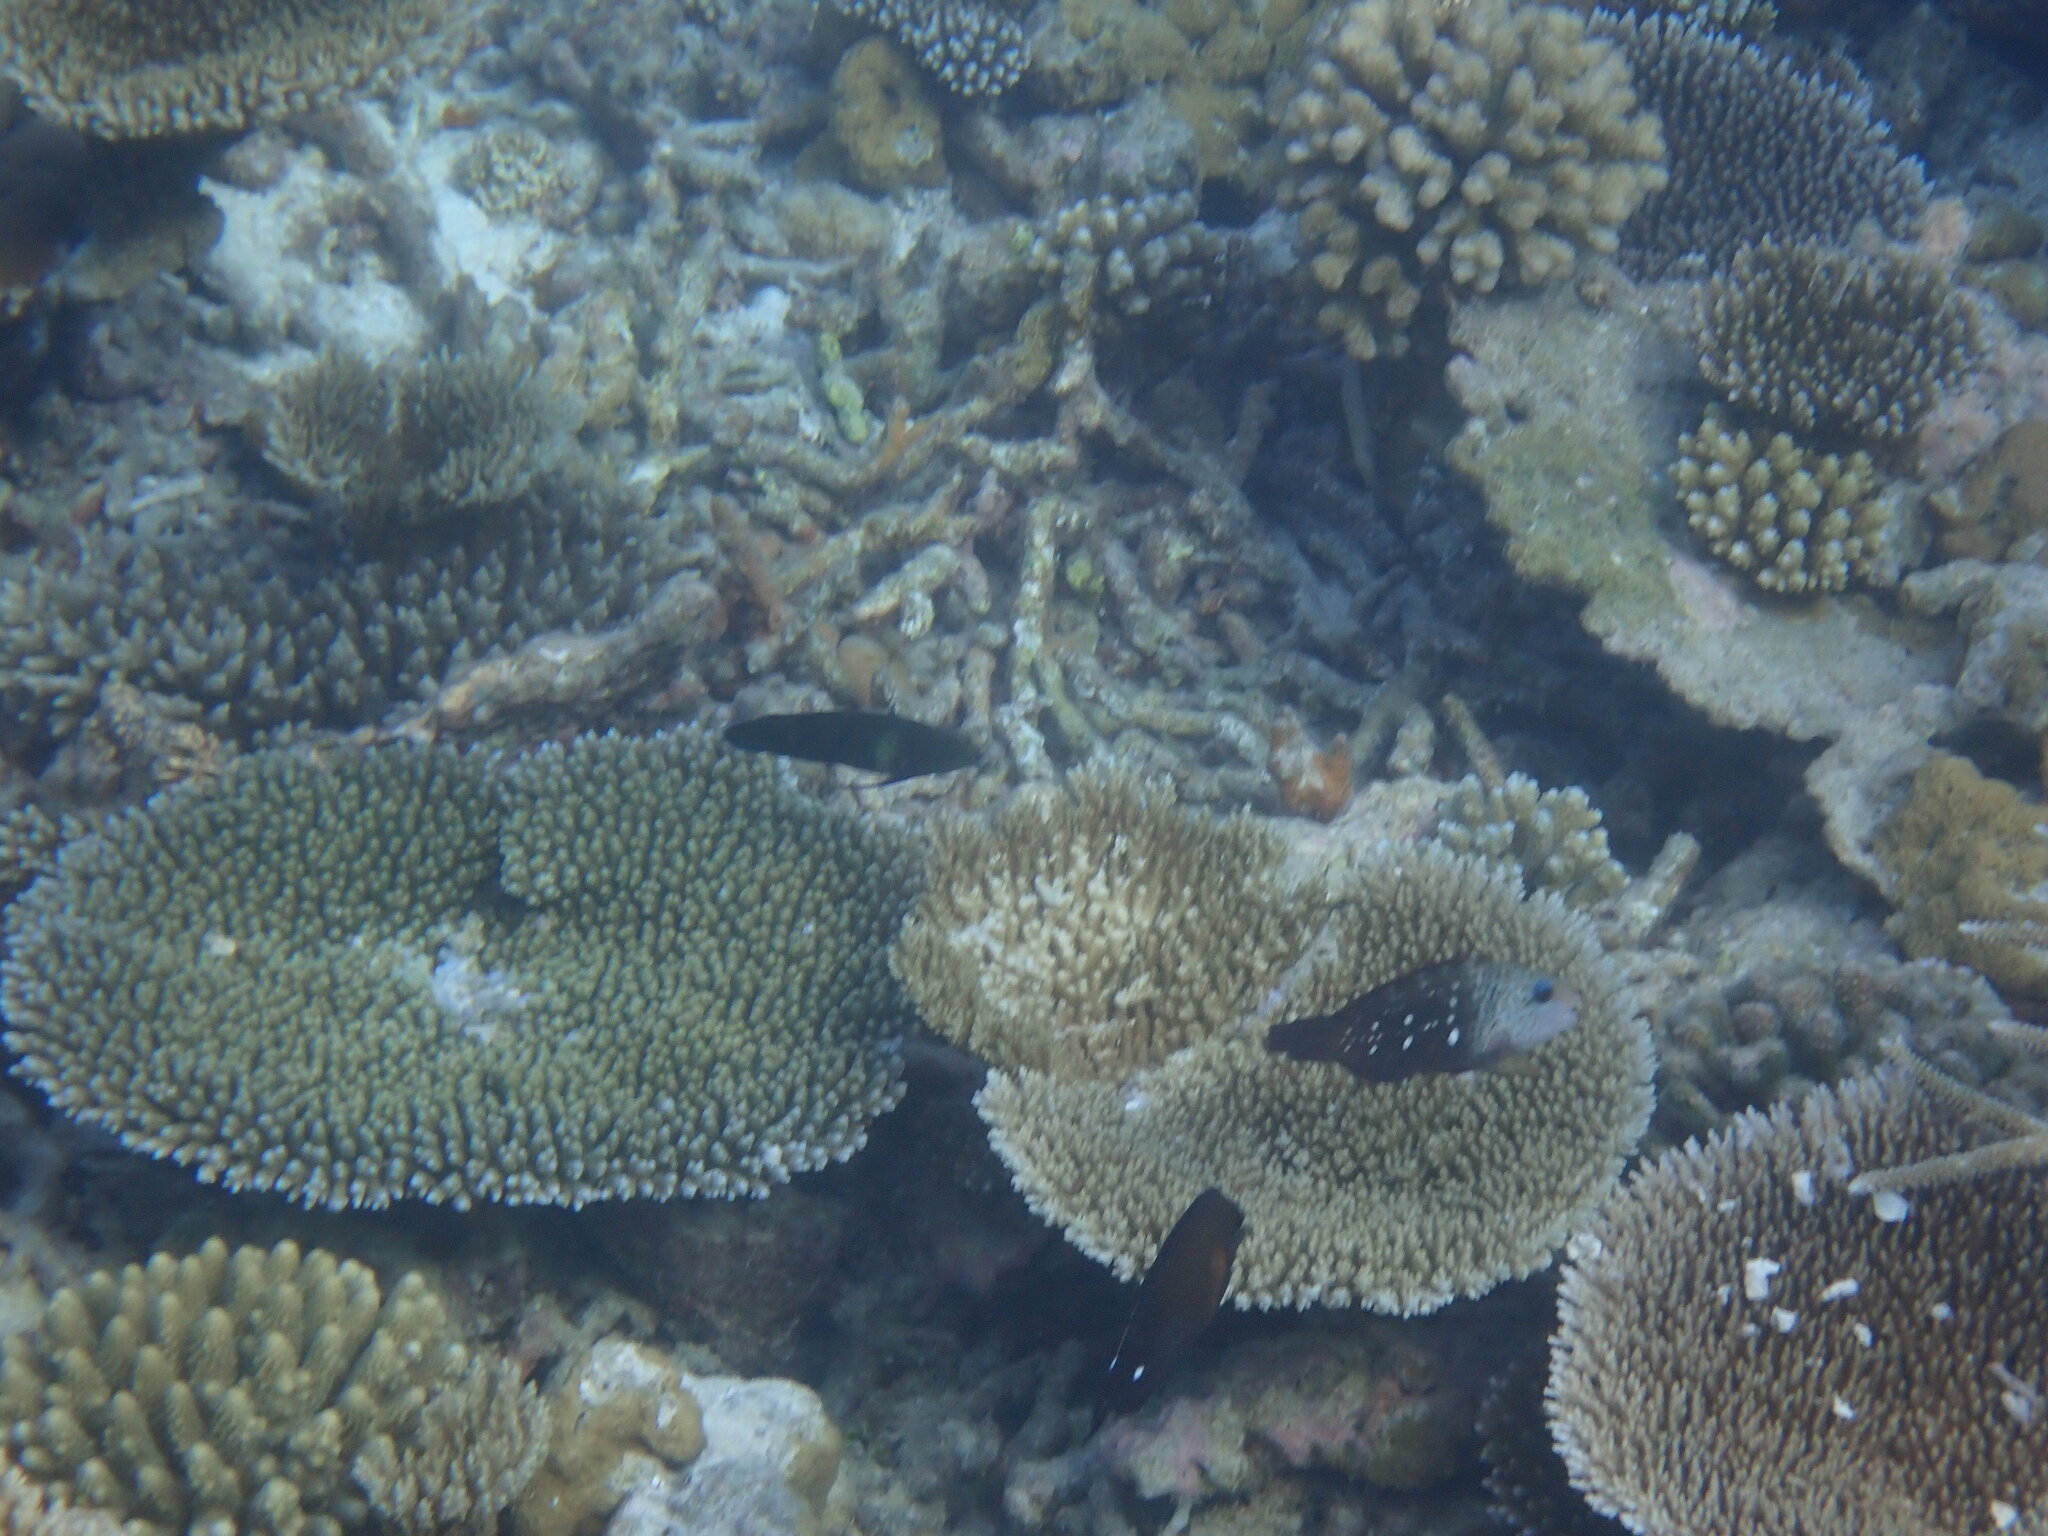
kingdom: Animalia
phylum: Chordata
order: Perciformes
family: Scaridae
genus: Chlorurus
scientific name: Chlorurus sordidus
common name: Bullethead parrotfish
